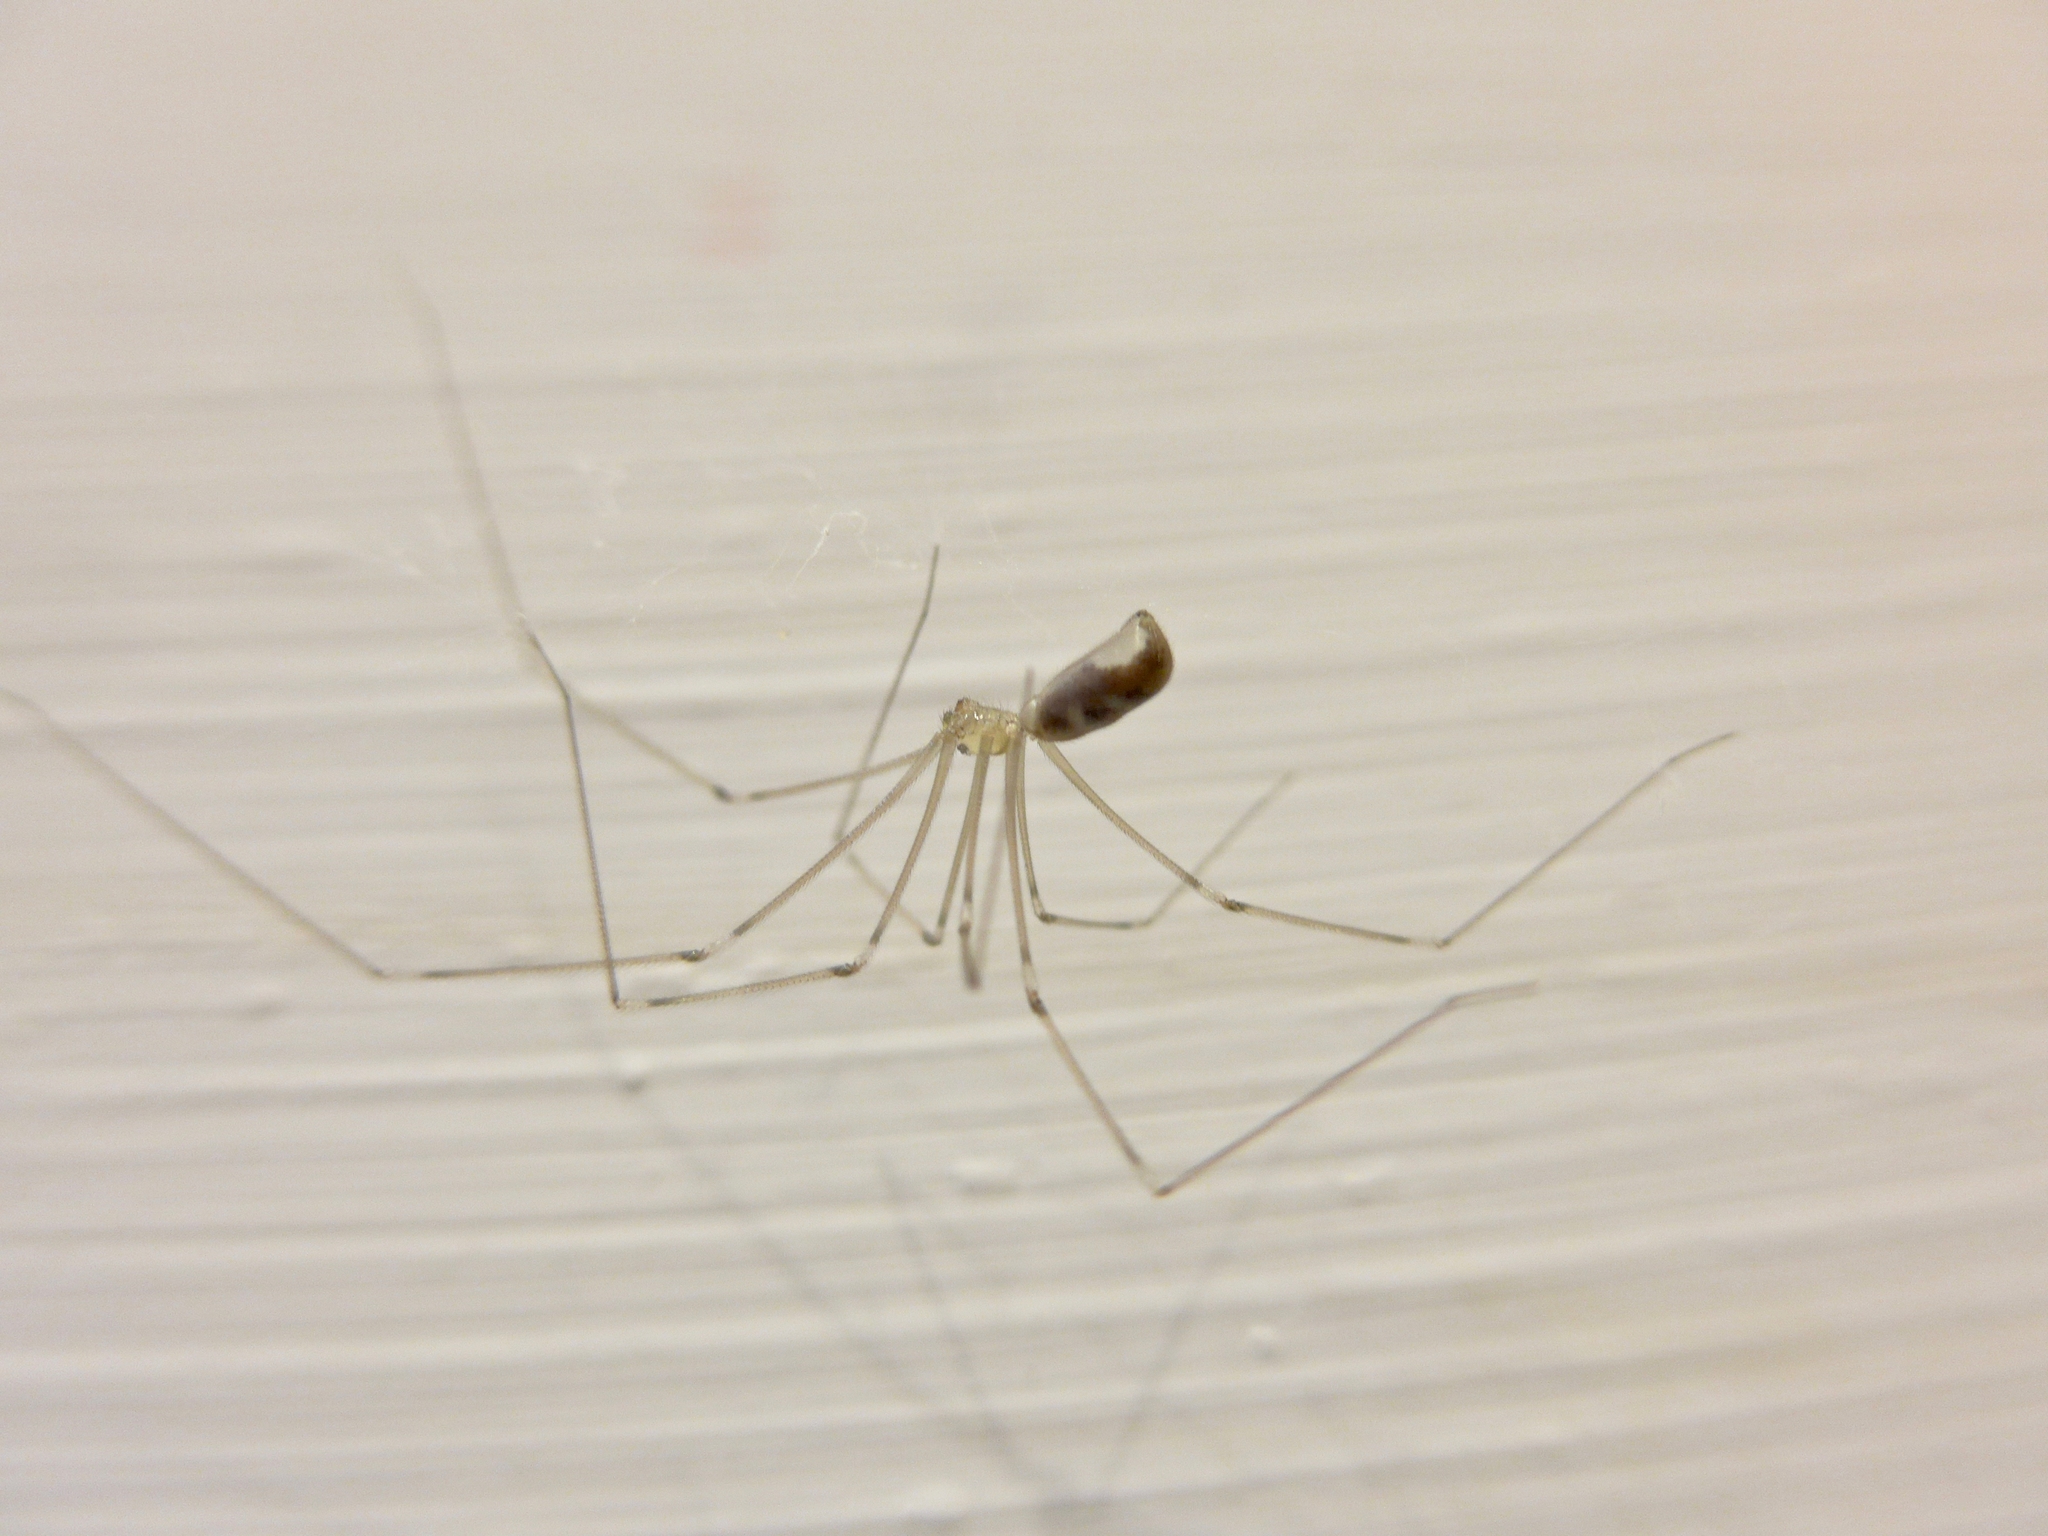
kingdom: Animalia
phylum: Arthropoda
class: Arachnida
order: Araneae
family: Pholcidae
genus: Pholcus
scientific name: Pholcus phalangioides
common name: Longbodied cellar spider
